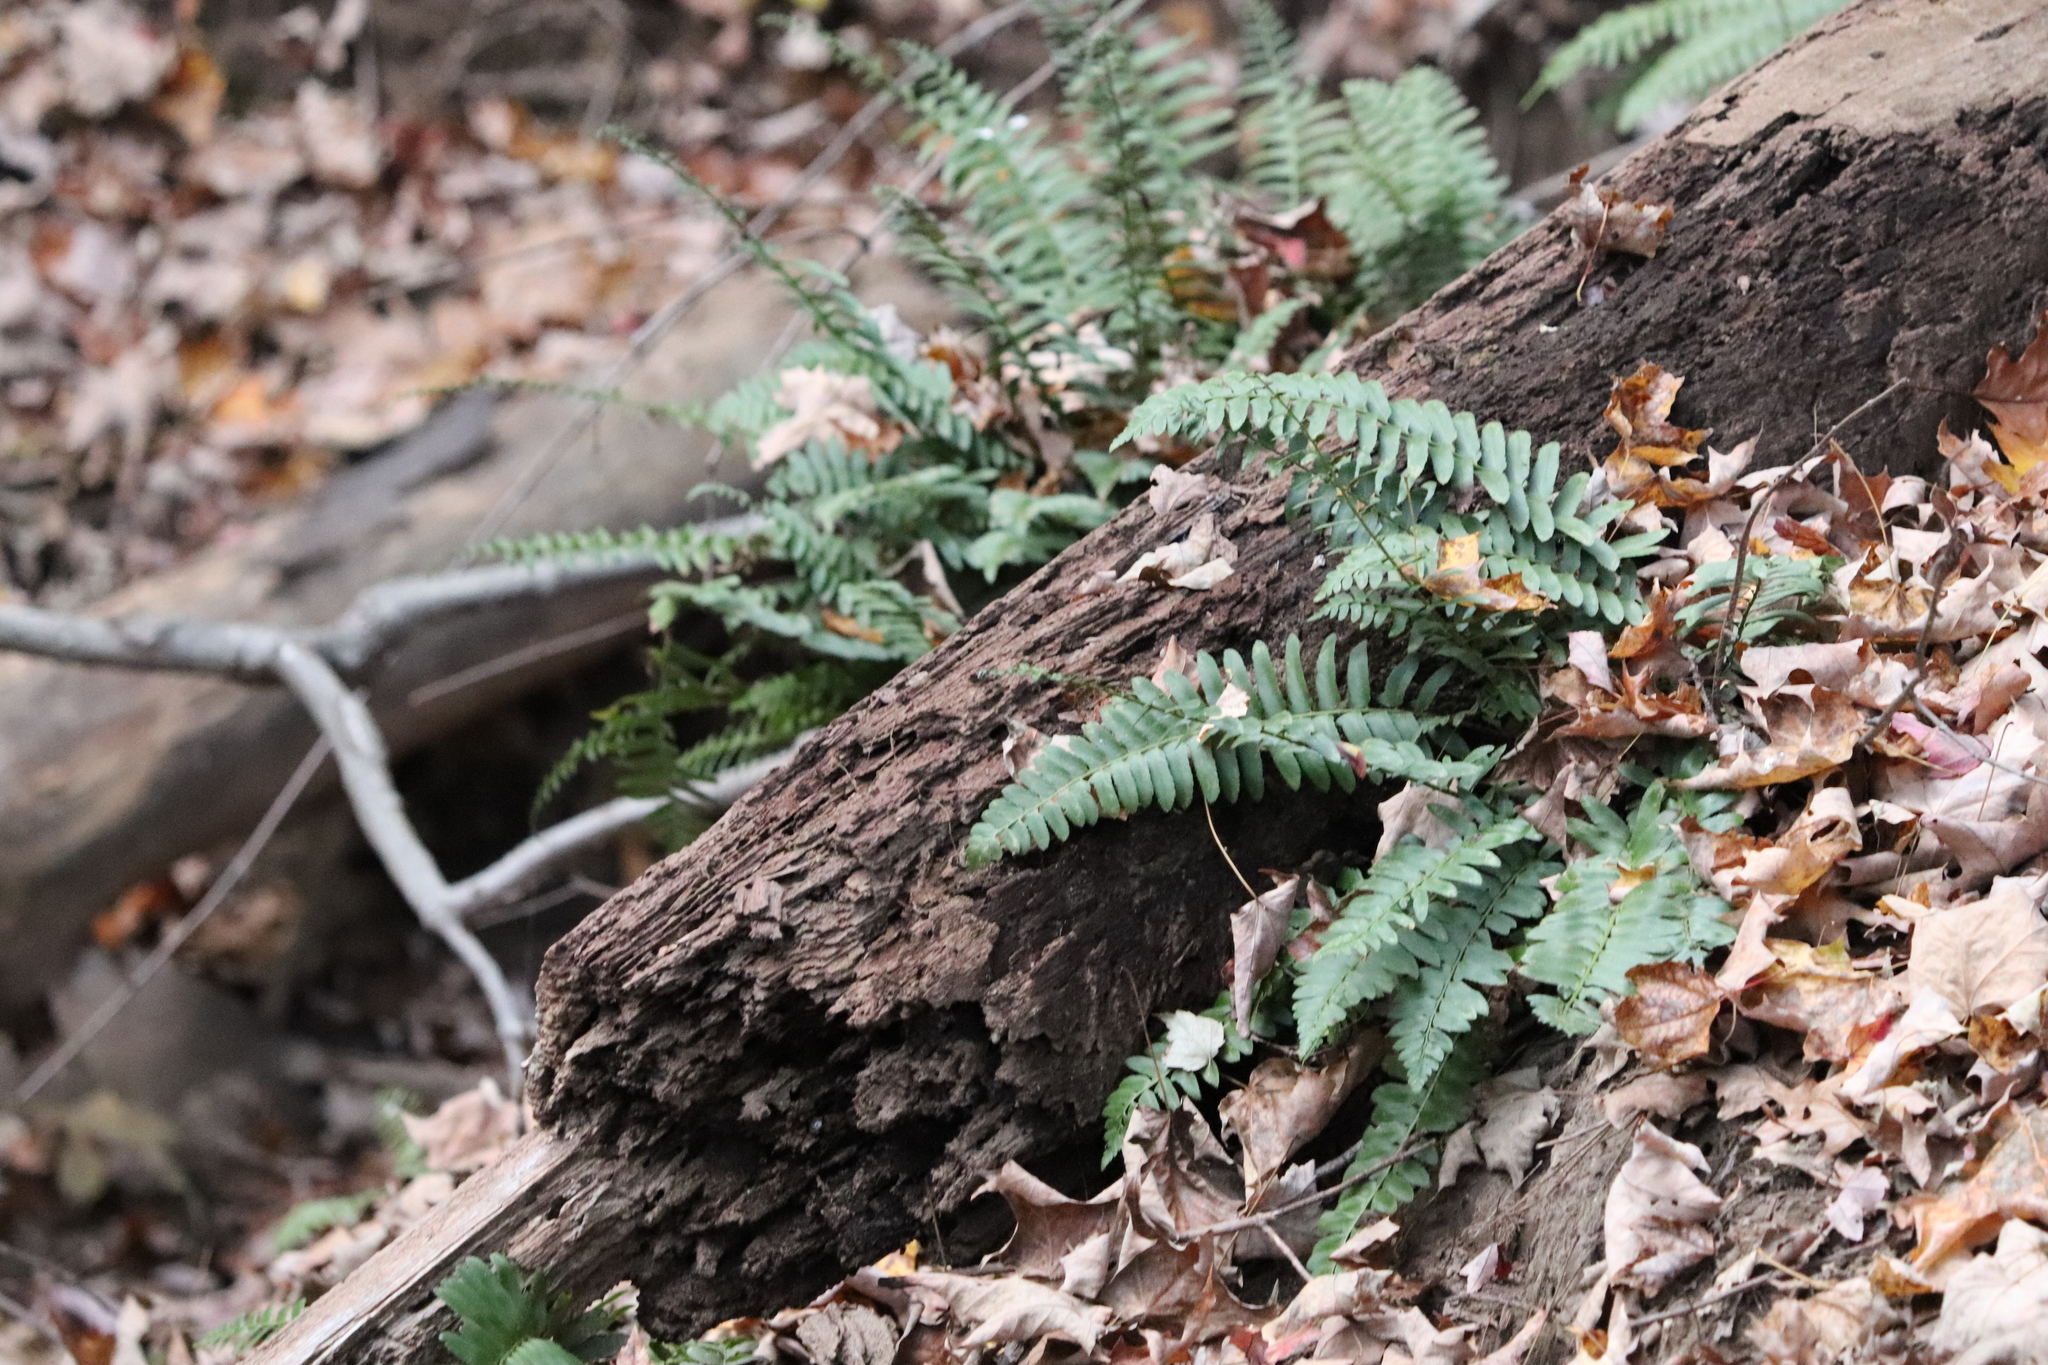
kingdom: Plantae
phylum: Tracheophyta
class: Polypodiopsida
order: Polypodiales
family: Dryopteridaceae
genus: Polystichum
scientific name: Polystichum acrostichoides
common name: Christmas fern
